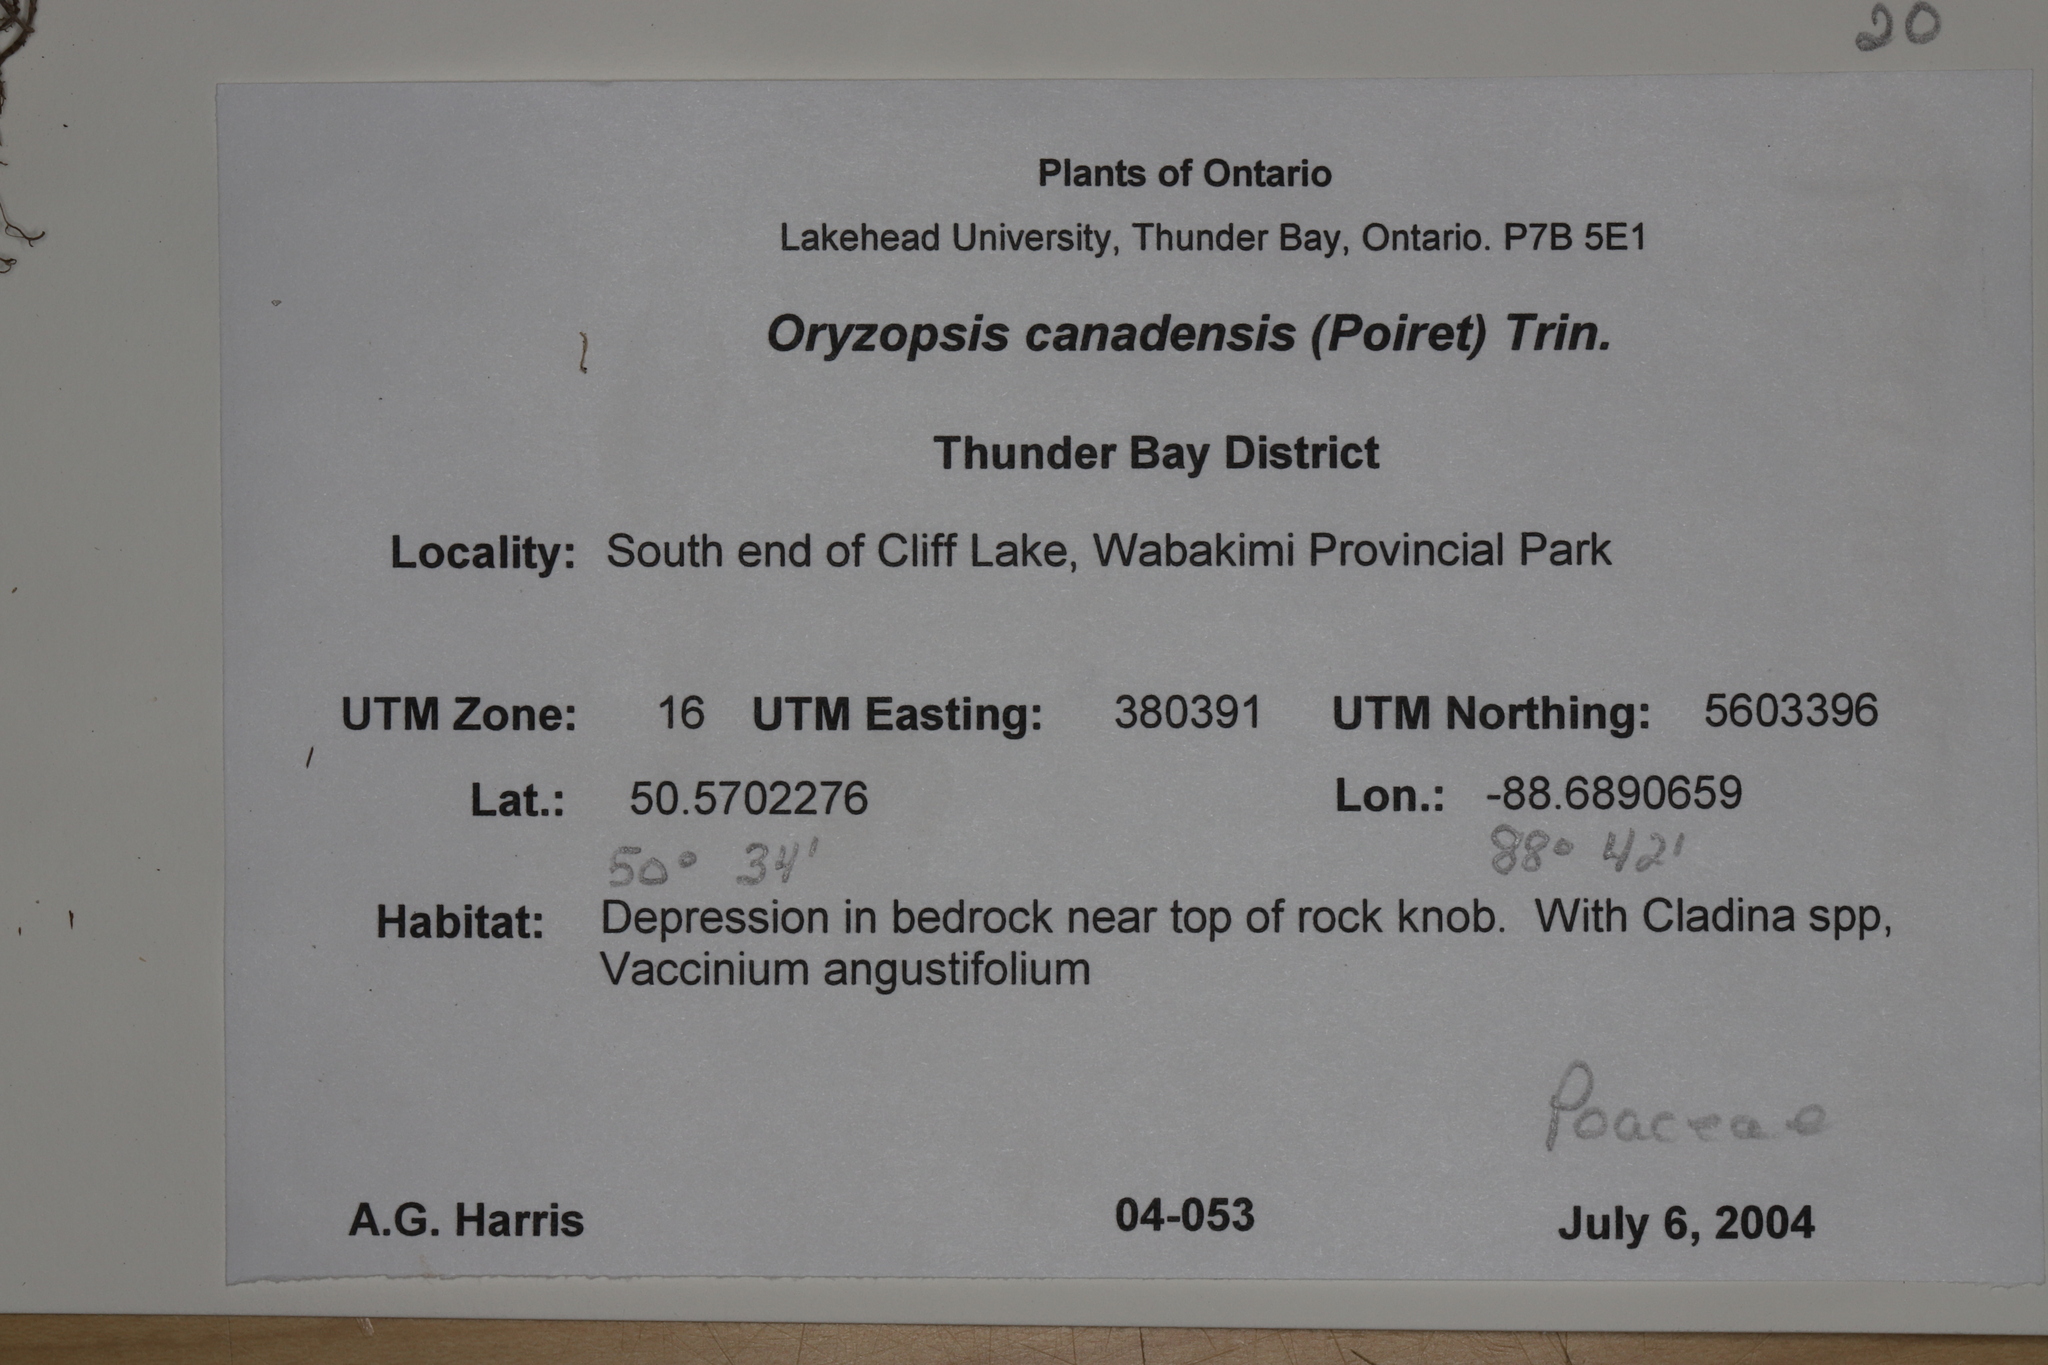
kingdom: Plantae
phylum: Tracheophyta
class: Liliopsida
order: Poales
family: Poaceae
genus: Piptatheropsis
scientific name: Piptatheropsis canadensis
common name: Canada mountain ricegrass
